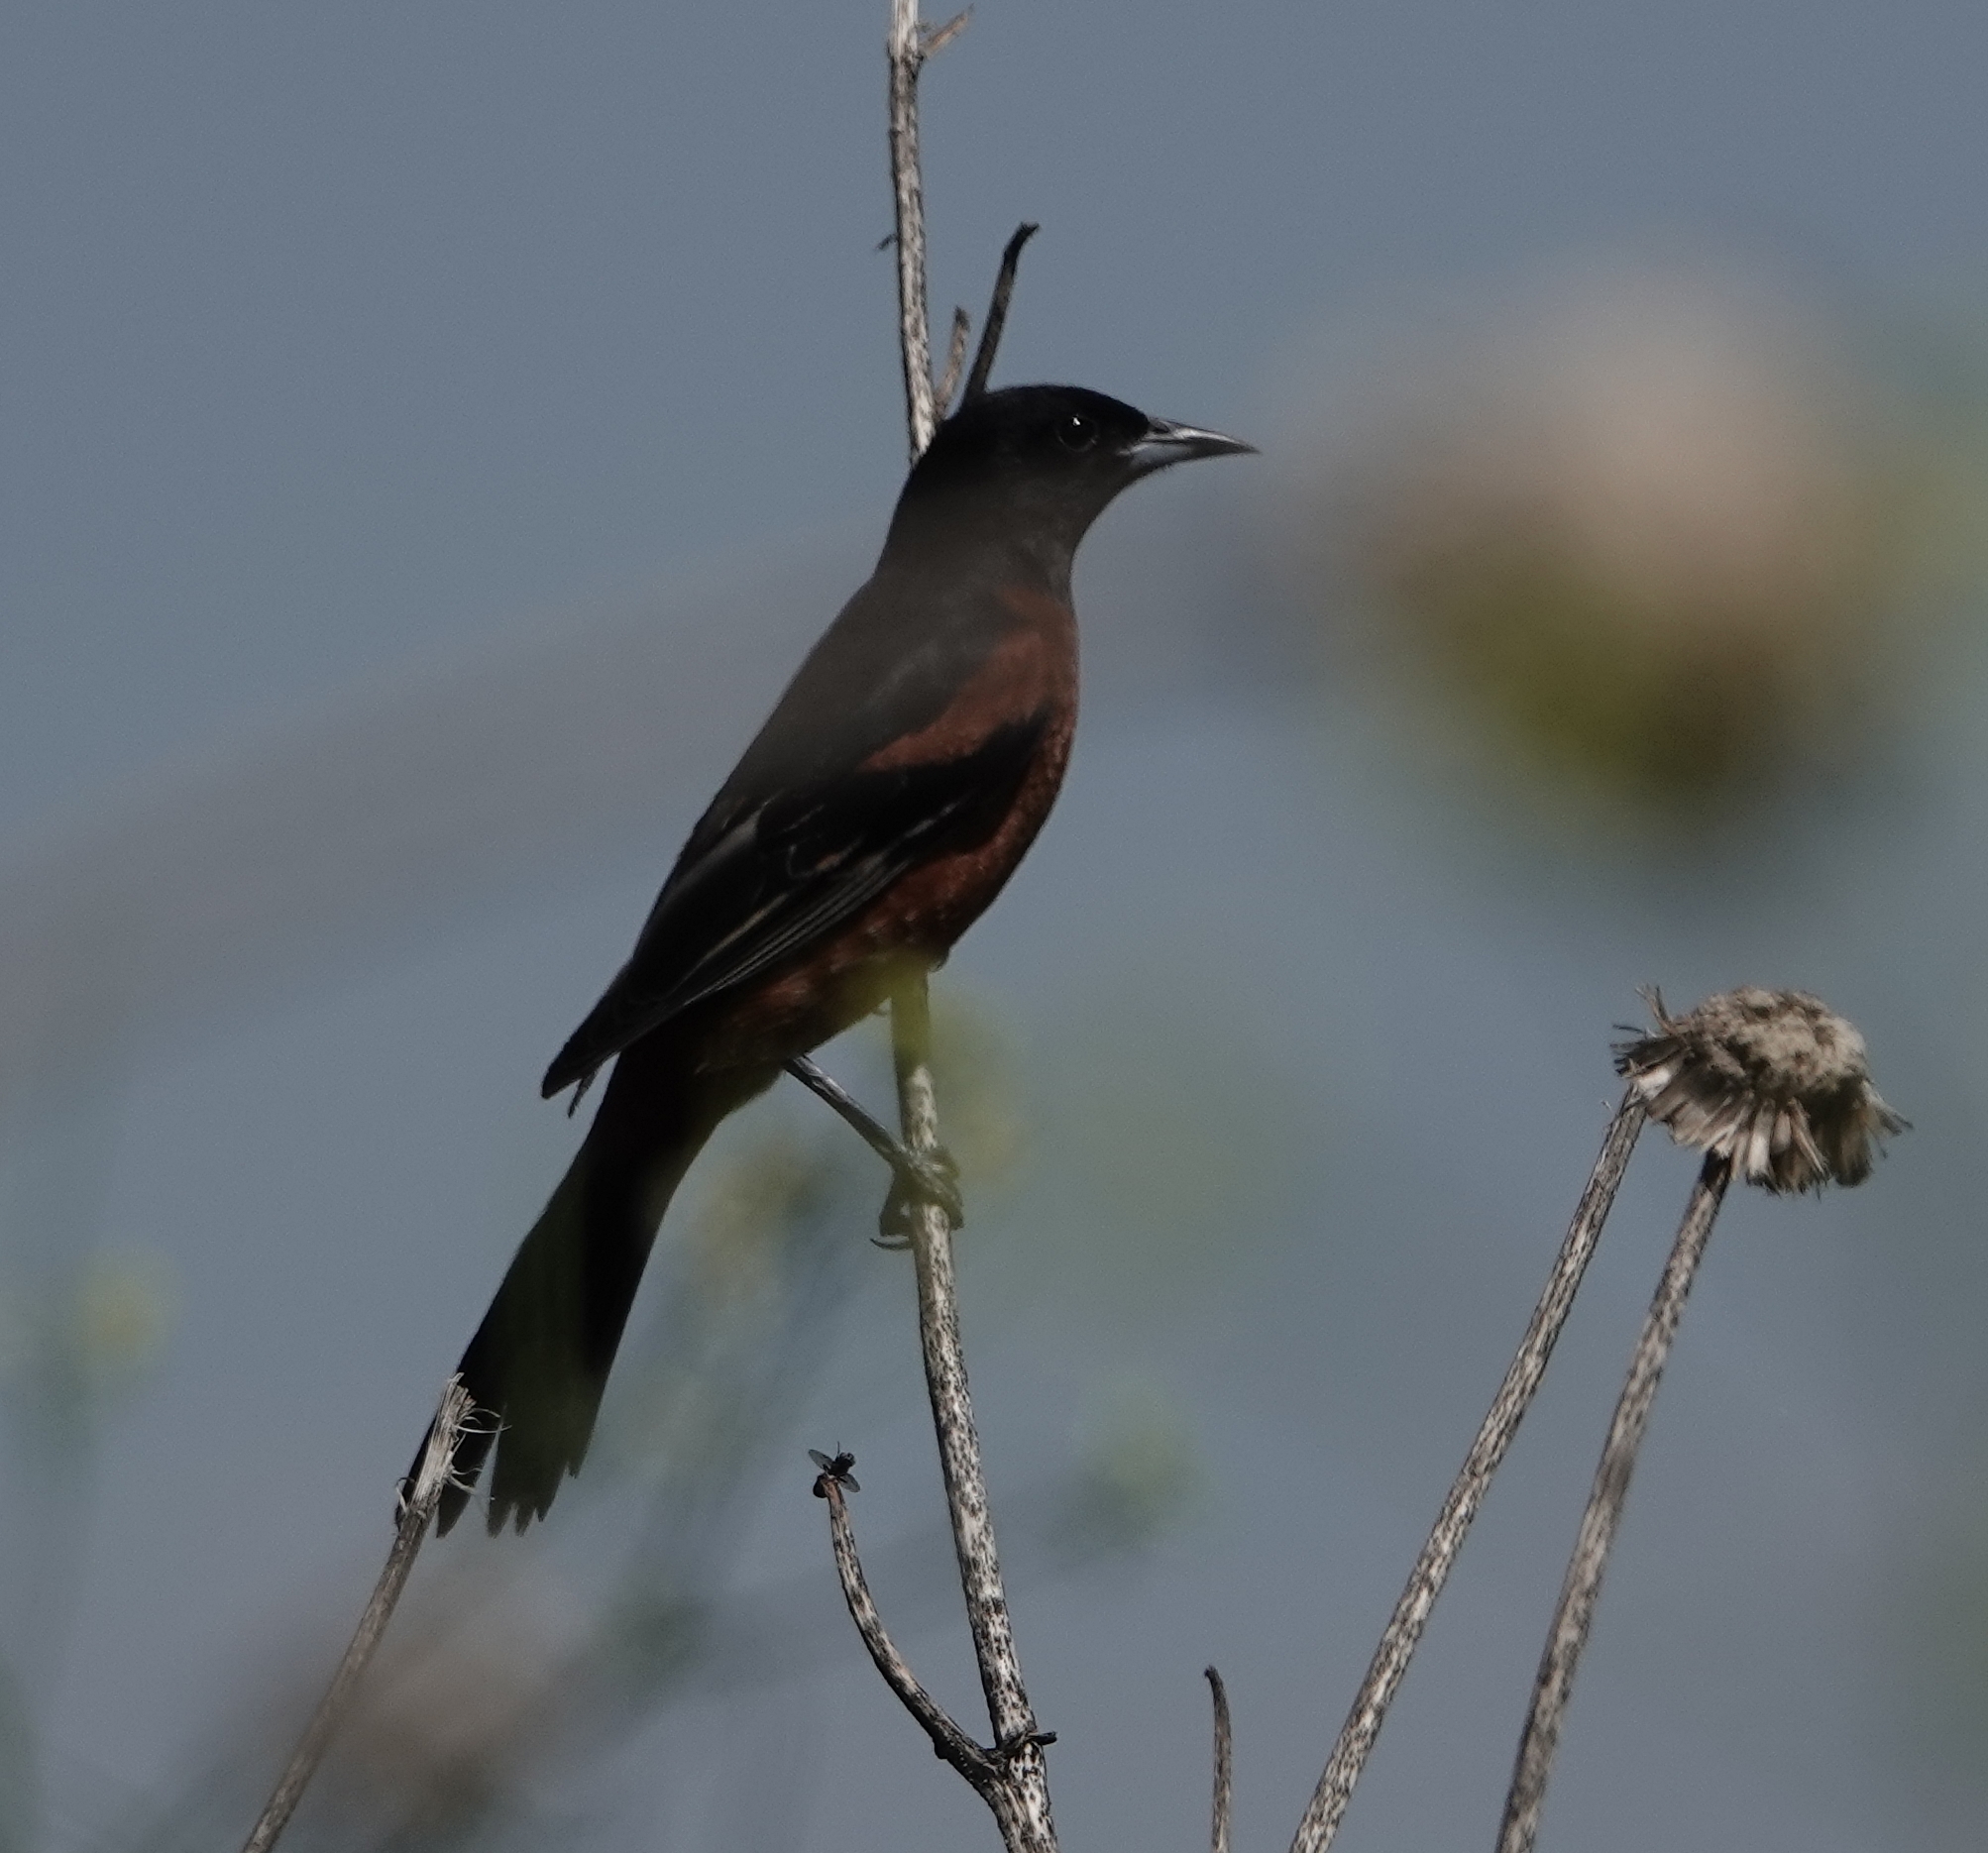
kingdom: Animalia
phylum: Chordata
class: Aves
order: Passeriformes
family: Icteridae
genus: Icterus
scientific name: Icterus spurius
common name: Orchard oriole
